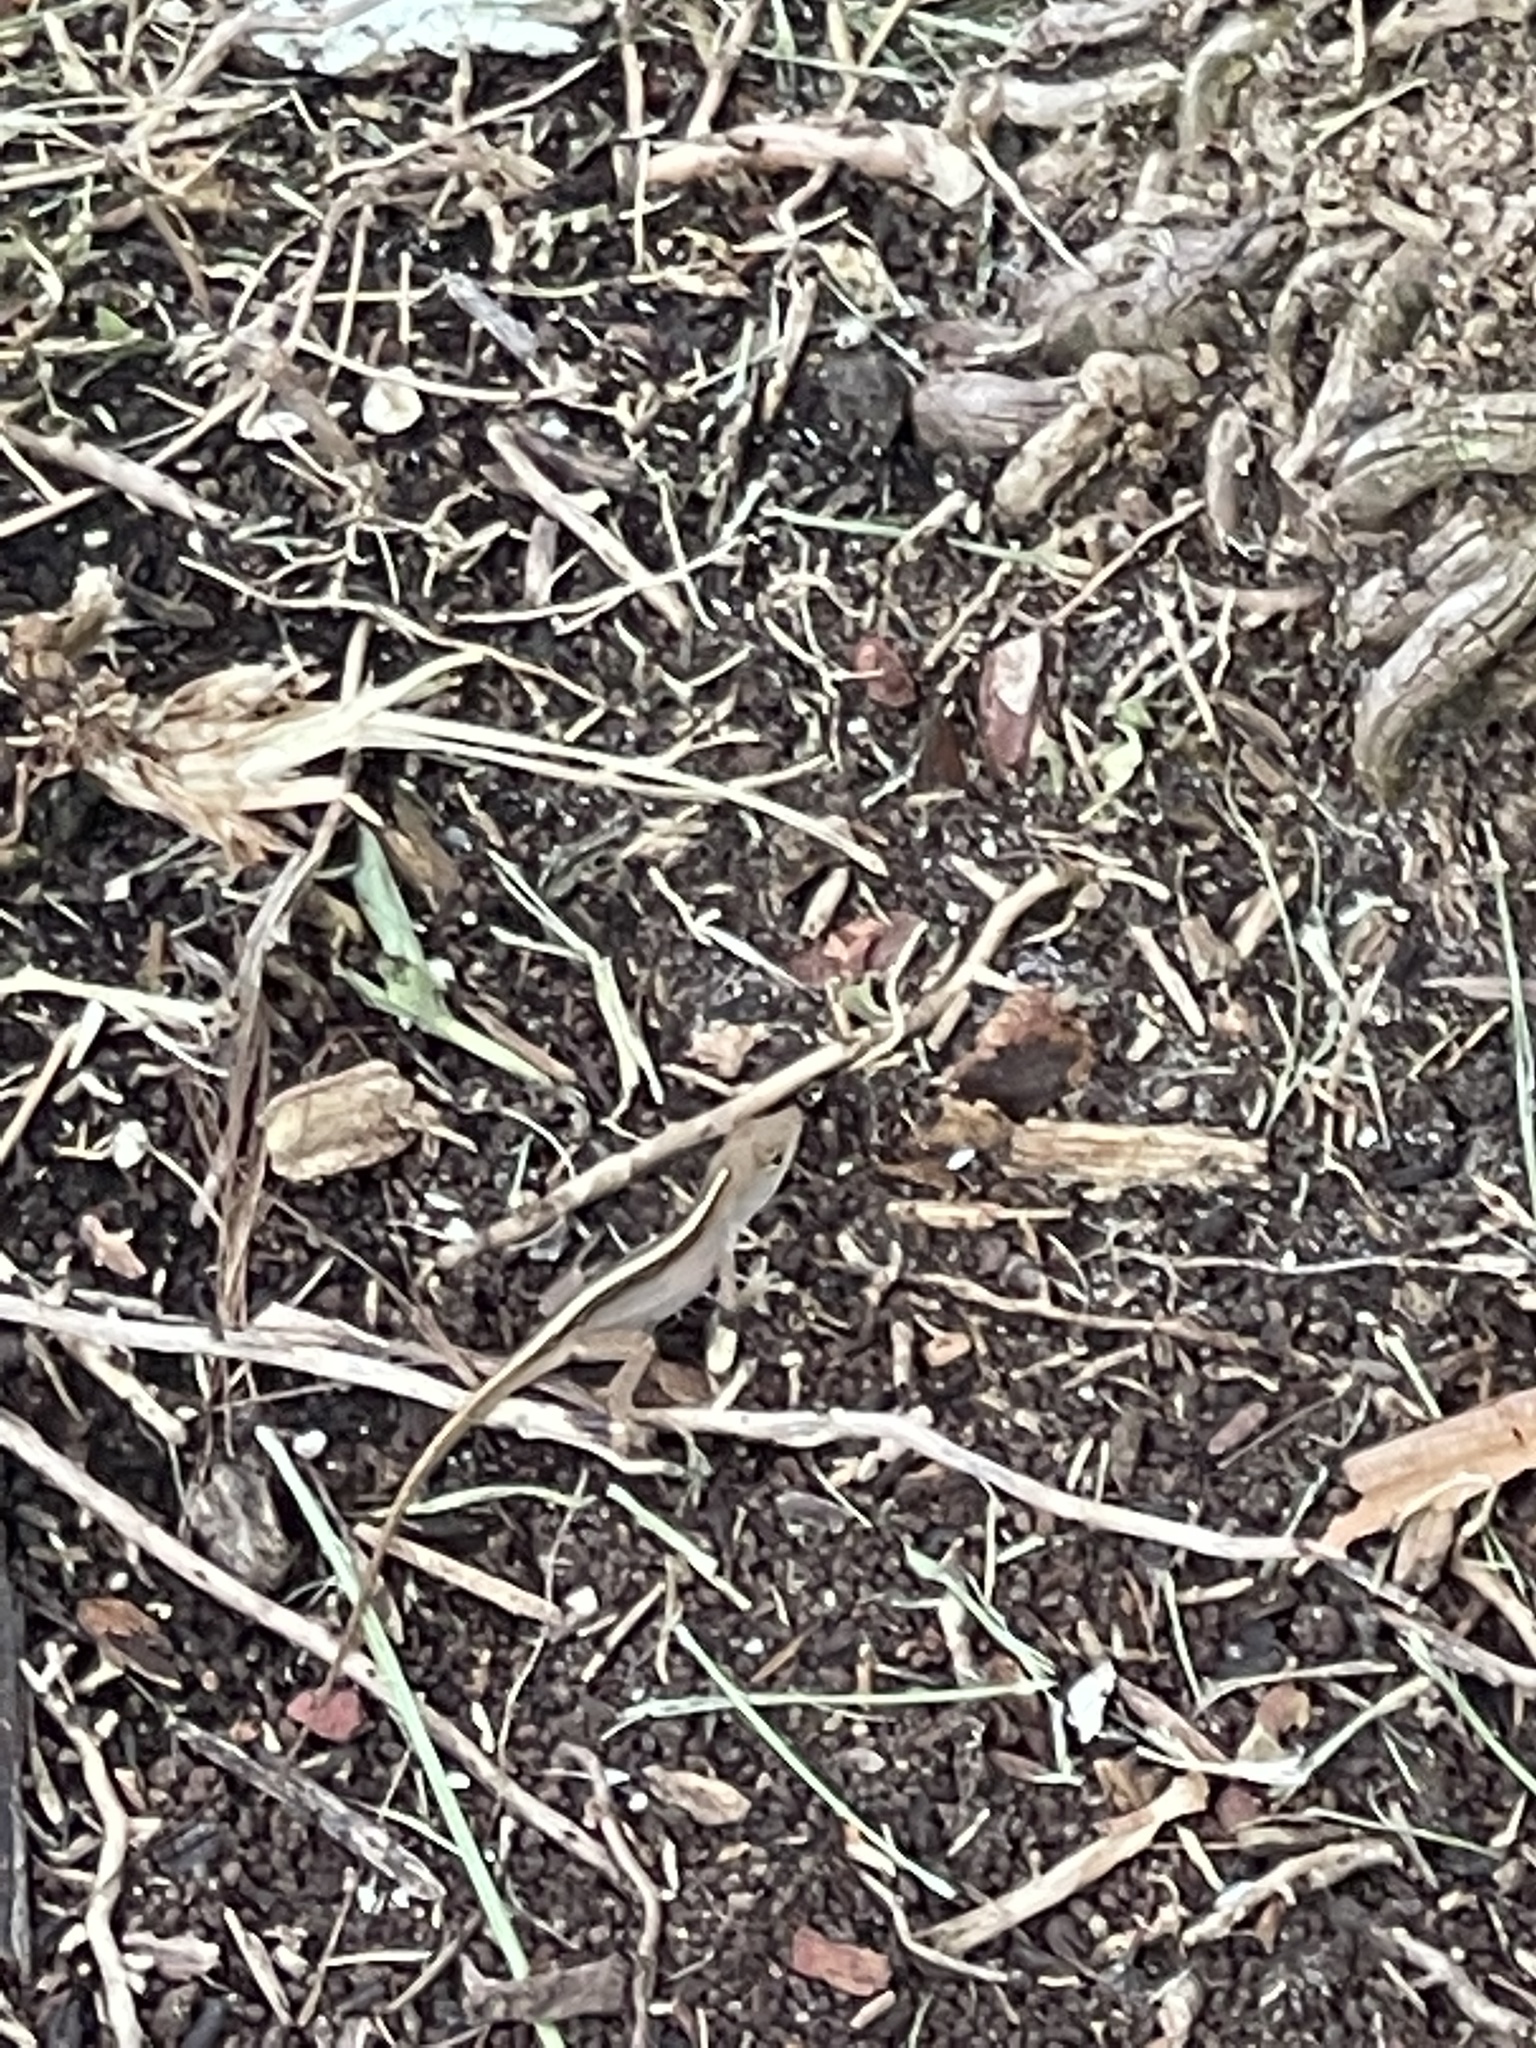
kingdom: Animalia
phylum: Chordata
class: Squamata
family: Dactyloidae
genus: Anolis
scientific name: Anolis sagrei
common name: Brown anole
